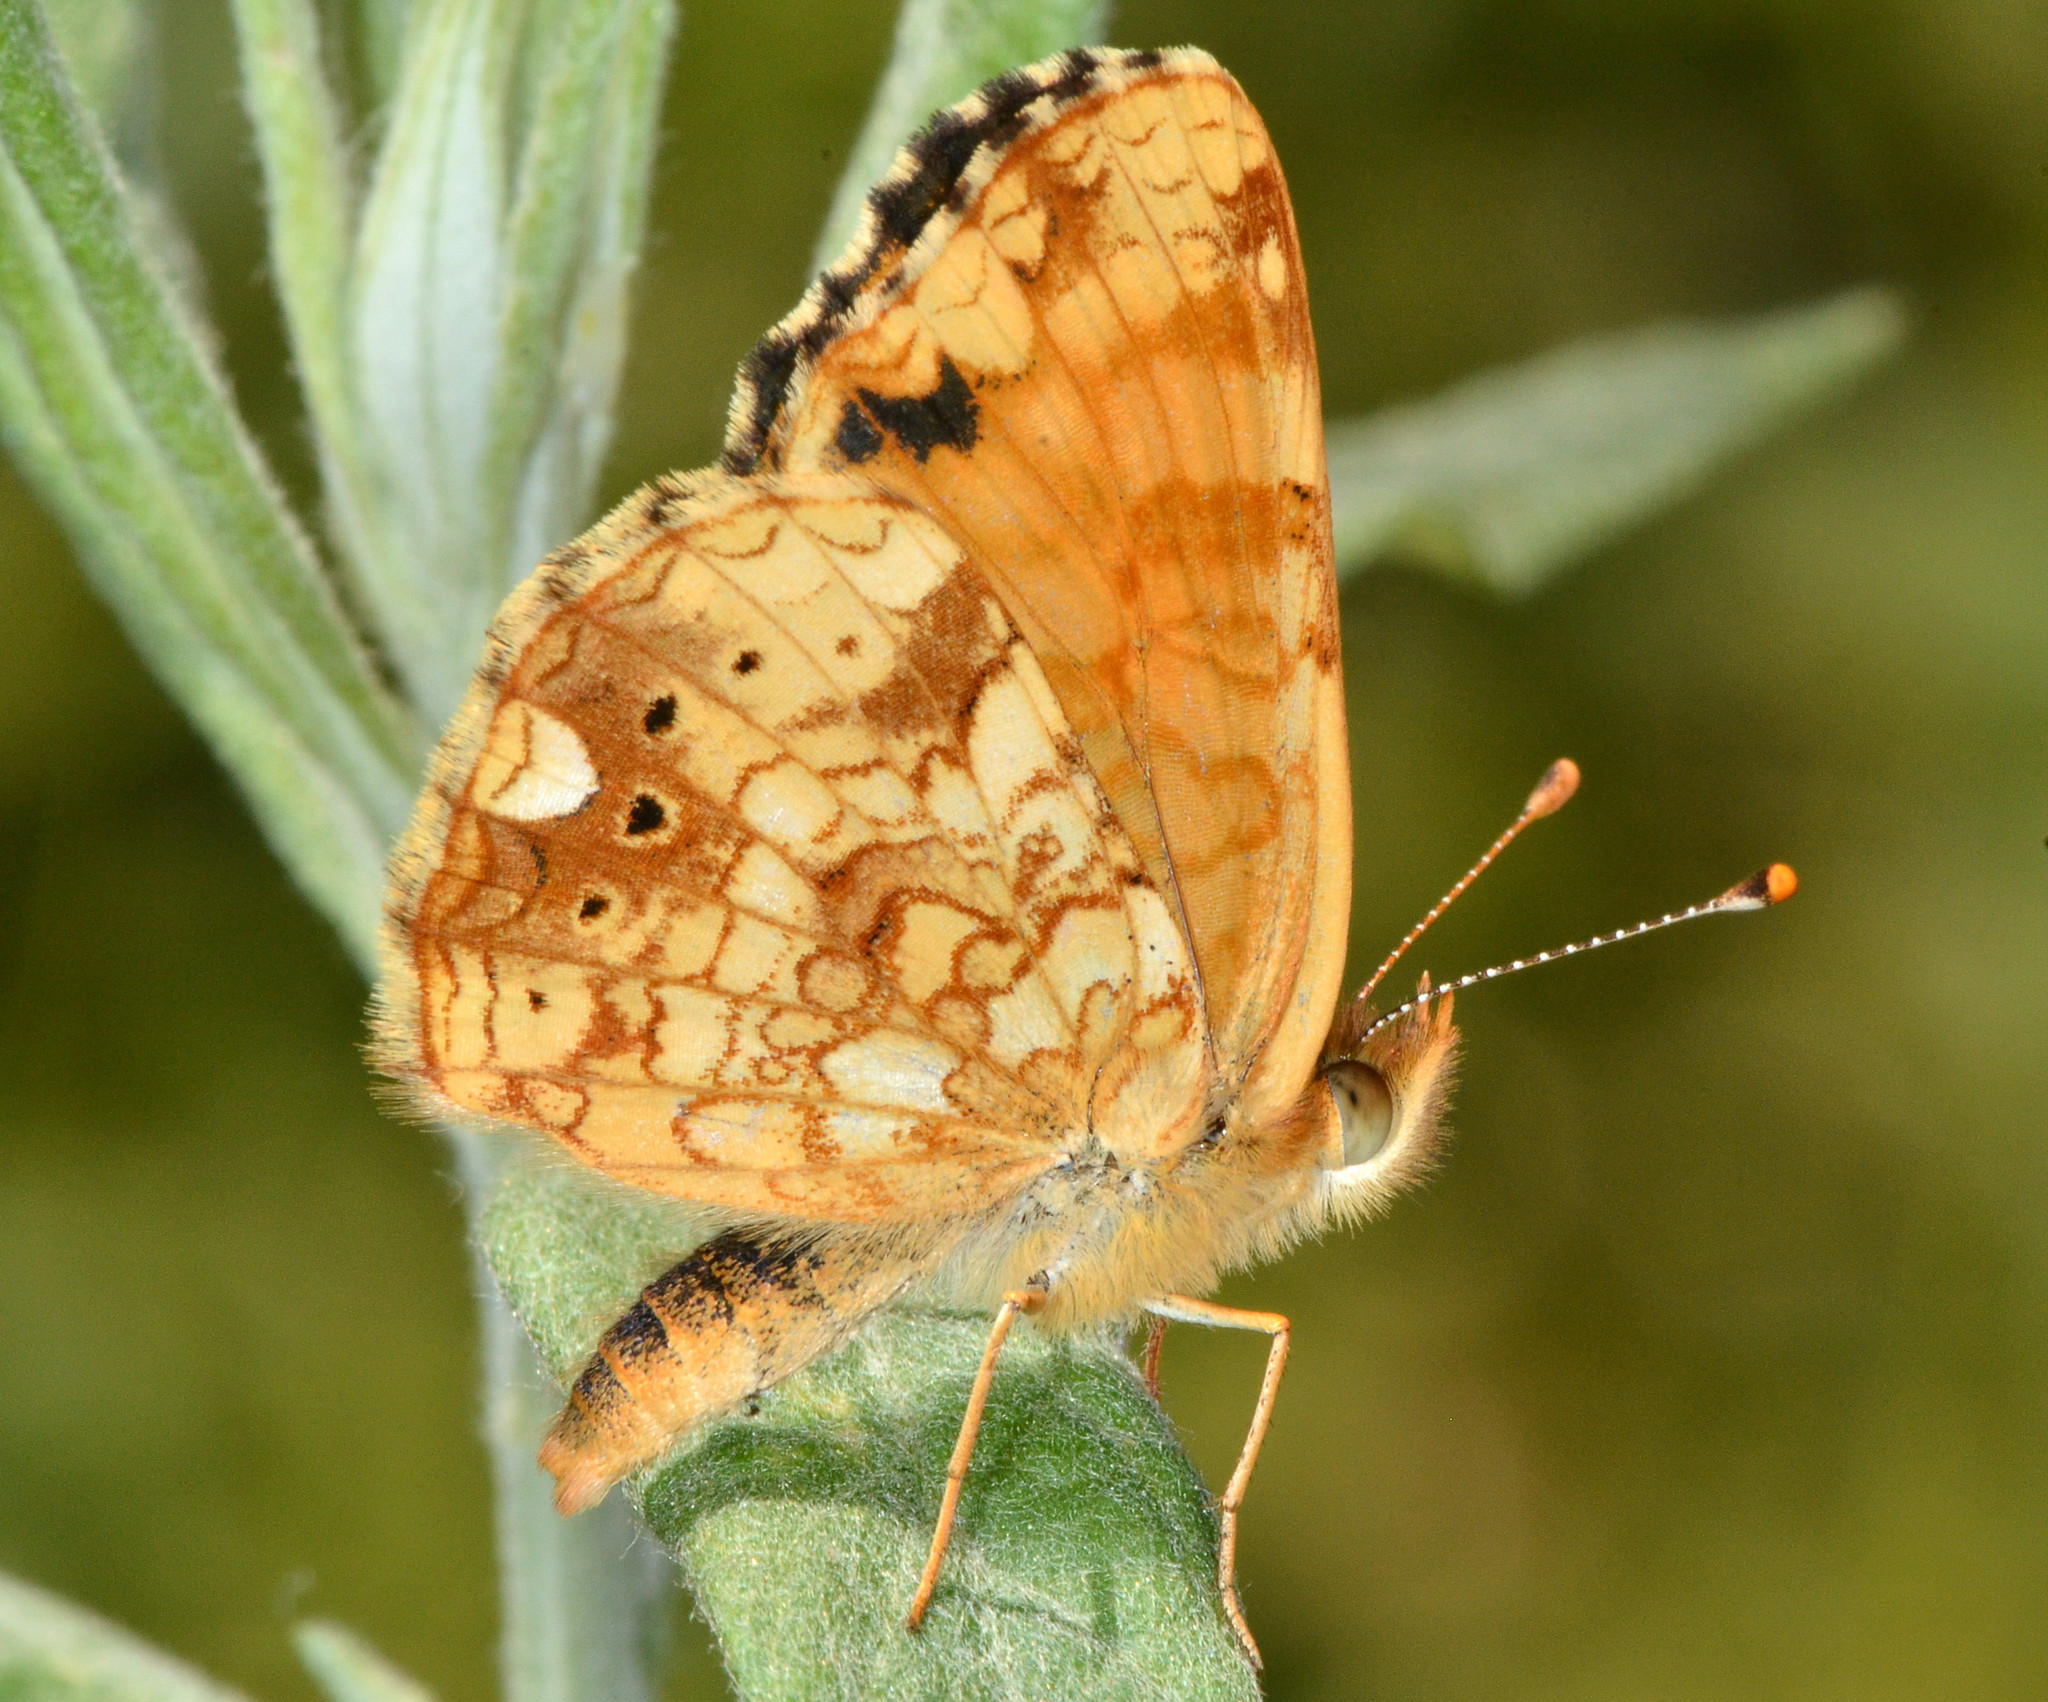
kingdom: Animalia
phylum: Arthropoda
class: Insecta
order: Lepidoptera
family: Nymphalidae
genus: Eresia
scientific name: Eresia aveyrona
